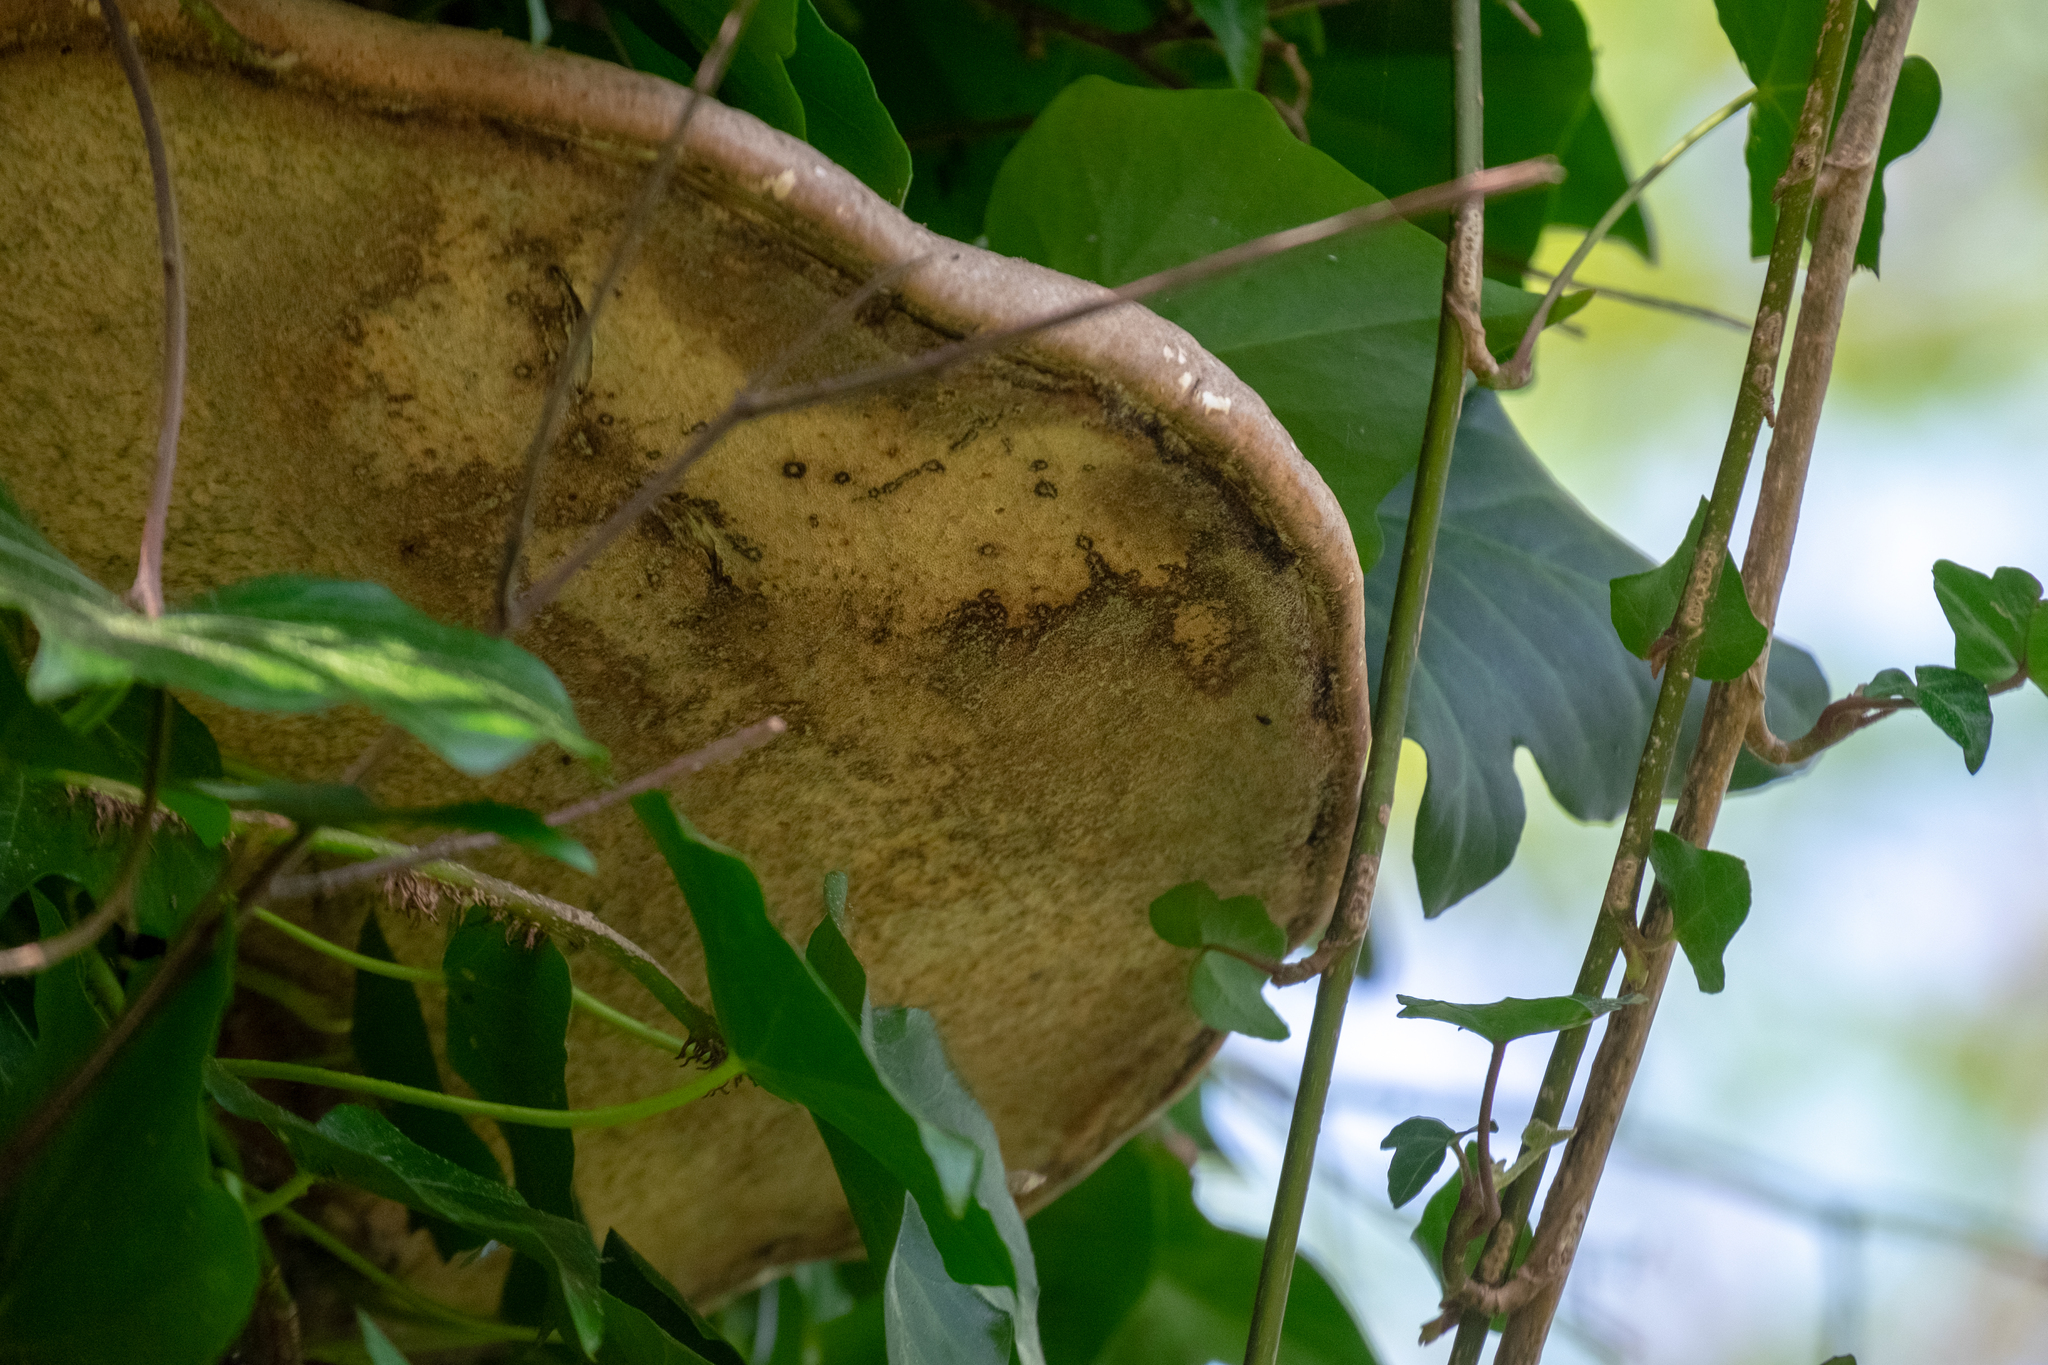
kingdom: Fungi
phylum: Basidiomycota
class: Agaricomycetes
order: Polyporales
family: Fomitopsidaceae
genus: Fomitopsis
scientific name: Fomitopsis betulina
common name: Birch polypore
